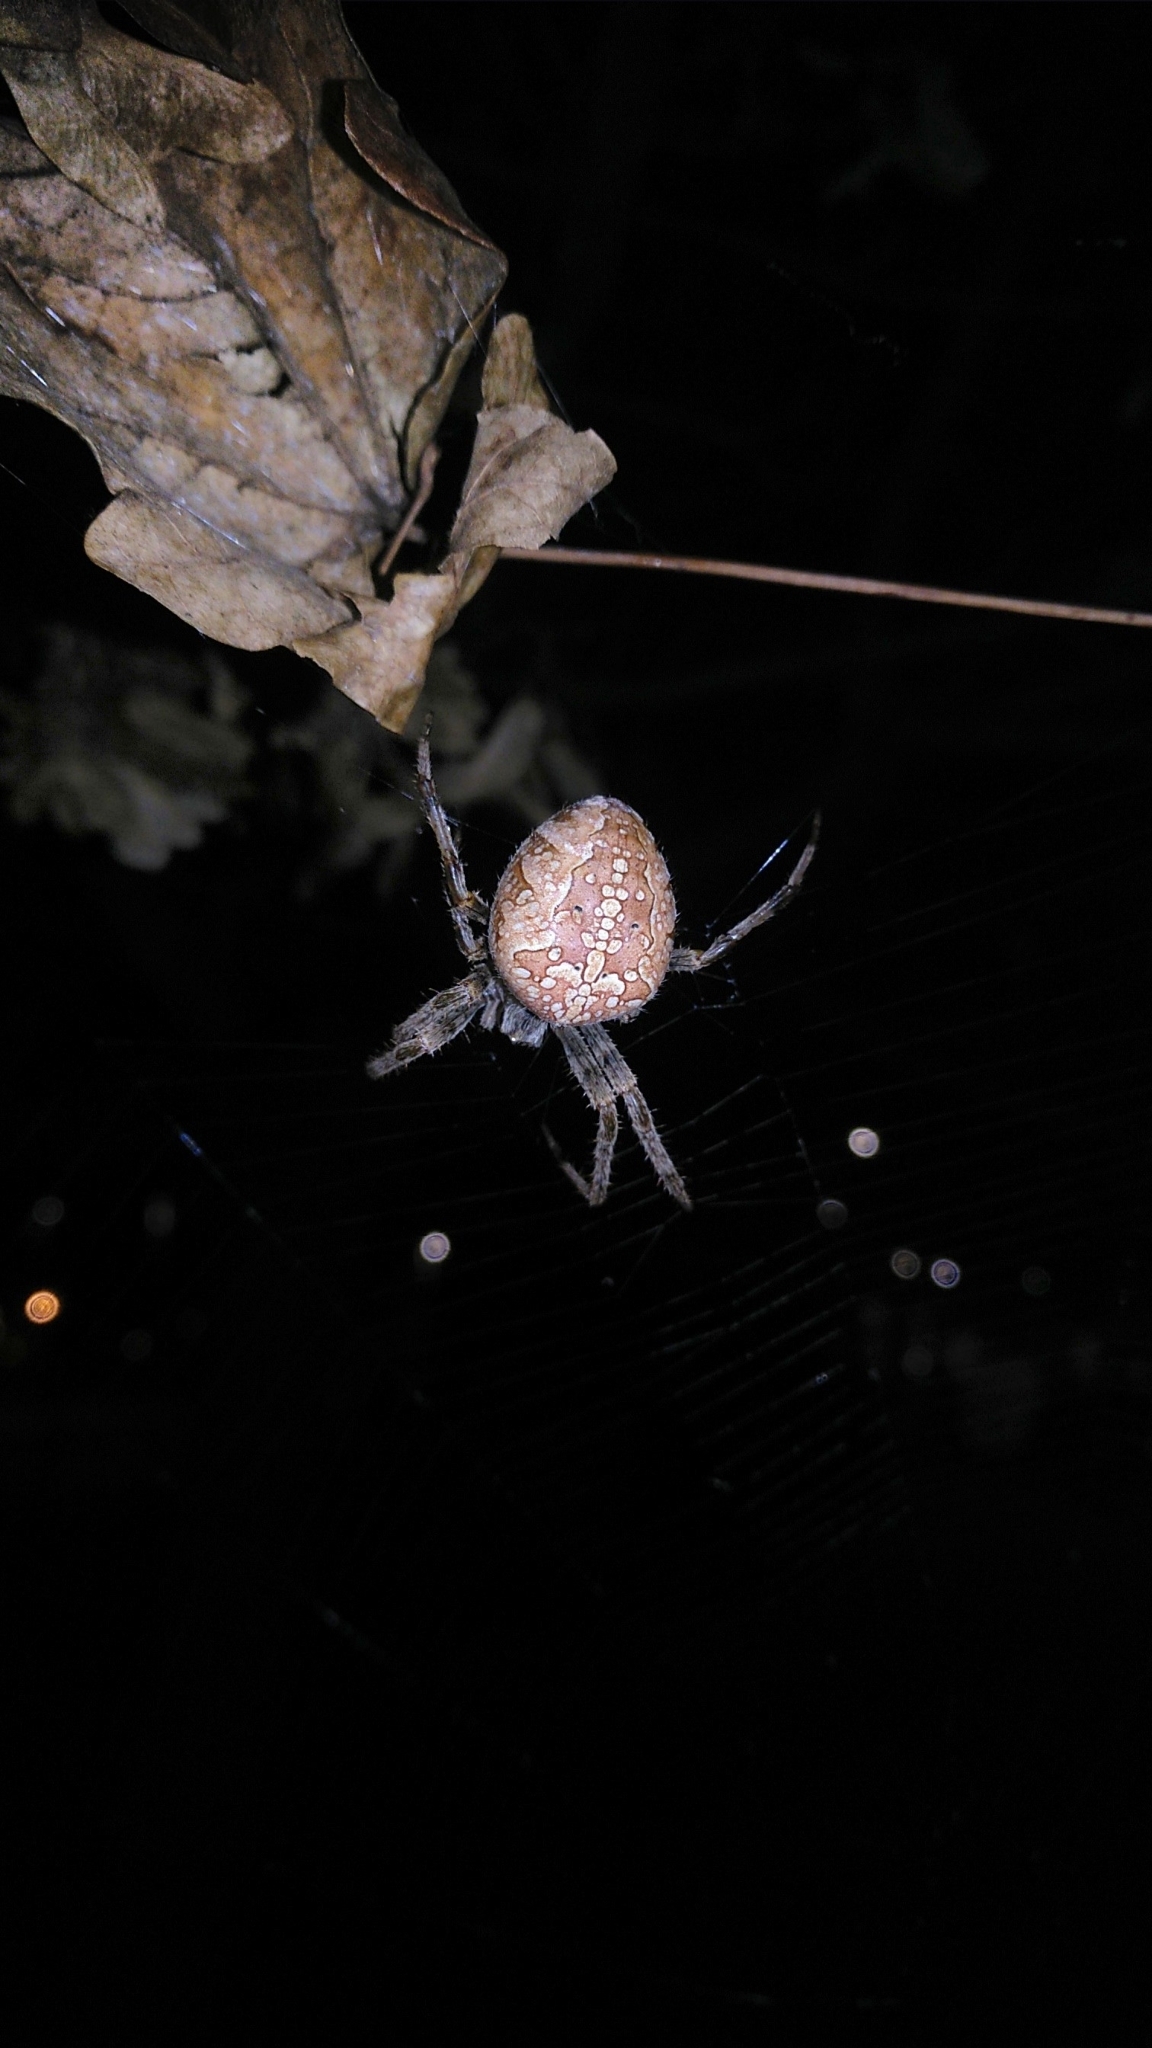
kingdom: Animalia
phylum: Arthropoda
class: Arachnida
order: Araneae
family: Araneidae
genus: Araneus
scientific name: Araneus diadematus
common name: Cross orbweaver
